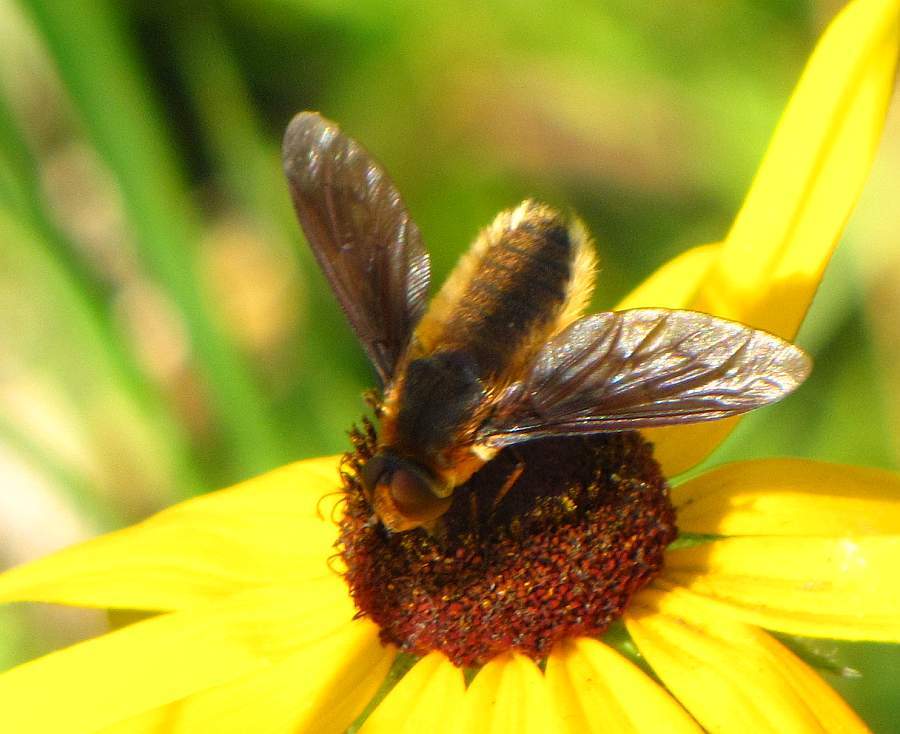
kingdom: Animalia
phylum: Arthropoda
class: Insecta
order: Diptera
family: Bombyliidae
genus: Poecilanthrax
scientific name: Poecilanthrax tegminipennis
